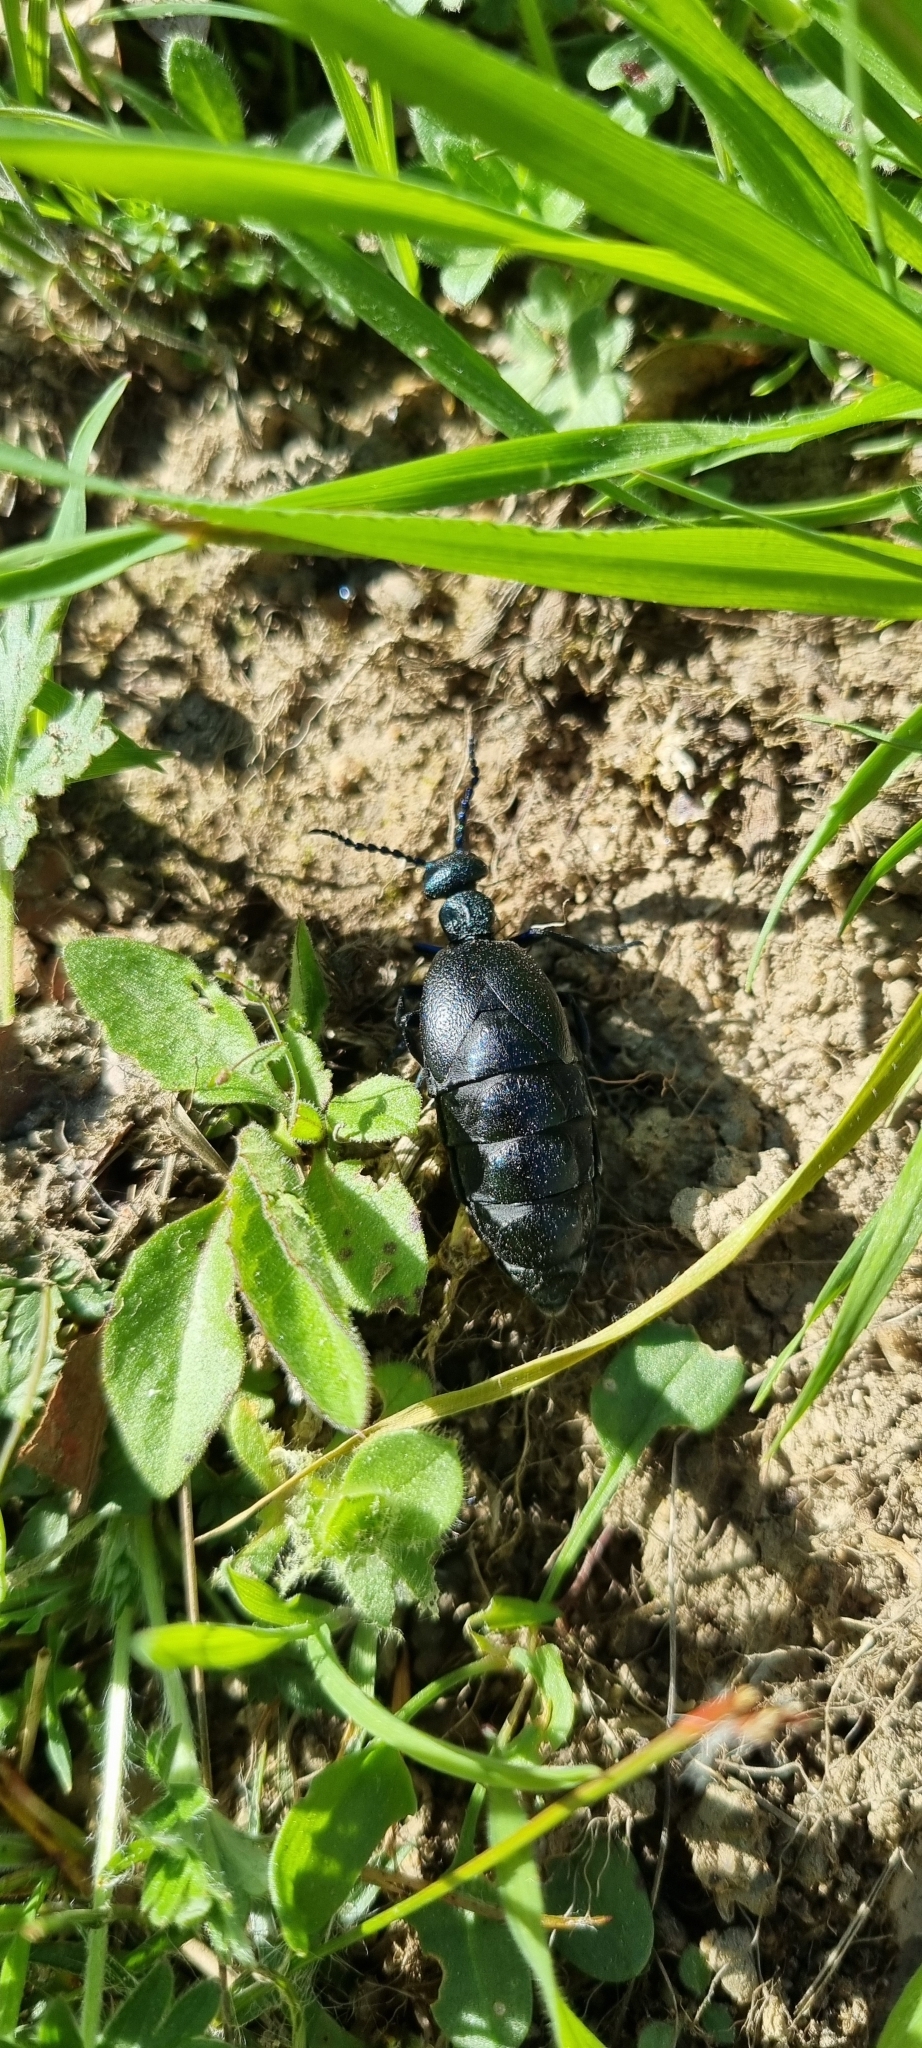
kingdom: Animalia
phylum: Arthropoda
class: Insecta
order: Coleoptera
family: Meloidae
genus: Meloe
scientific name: Meloe proscarabaeus
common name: Black oil-beetle
